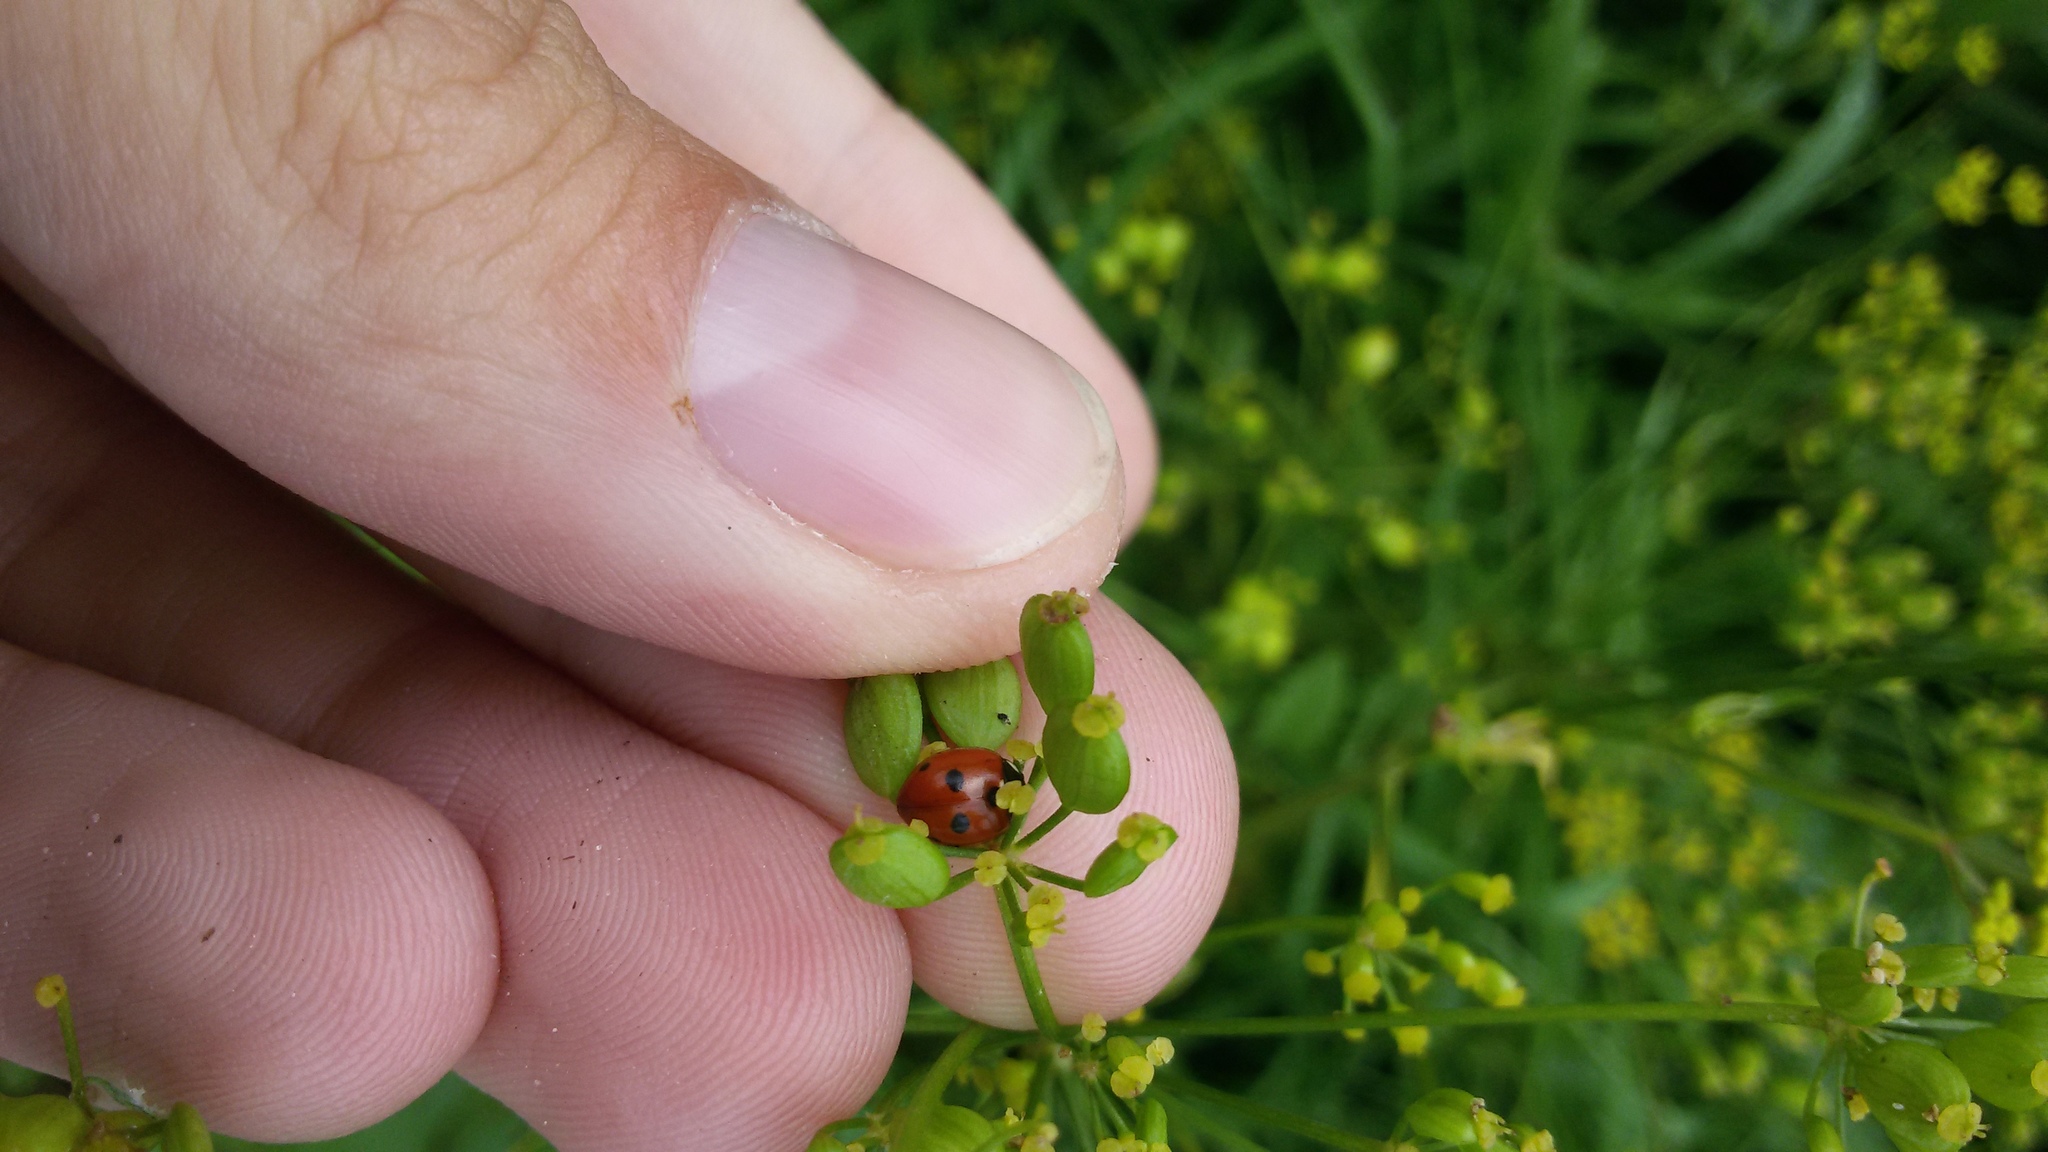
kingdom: Animalia
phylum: Arthropoda
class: Insecta
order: Coleoptera
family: Coccinellidae
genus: Coccinella
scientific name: Coccinella septempunctata
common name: Sevenspotted lady beetle
